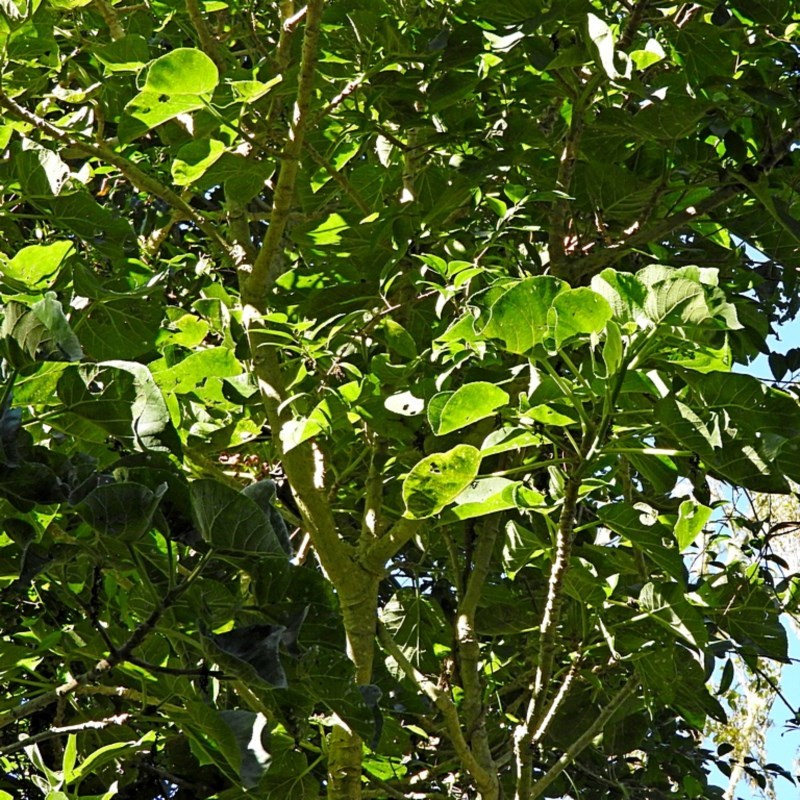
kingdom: Plantae
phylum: Tracheophyta
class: Magnoliopsida
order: Rosales
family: Urticaceae
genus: Dendrocnide
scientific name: Dendrocnide excelsa
